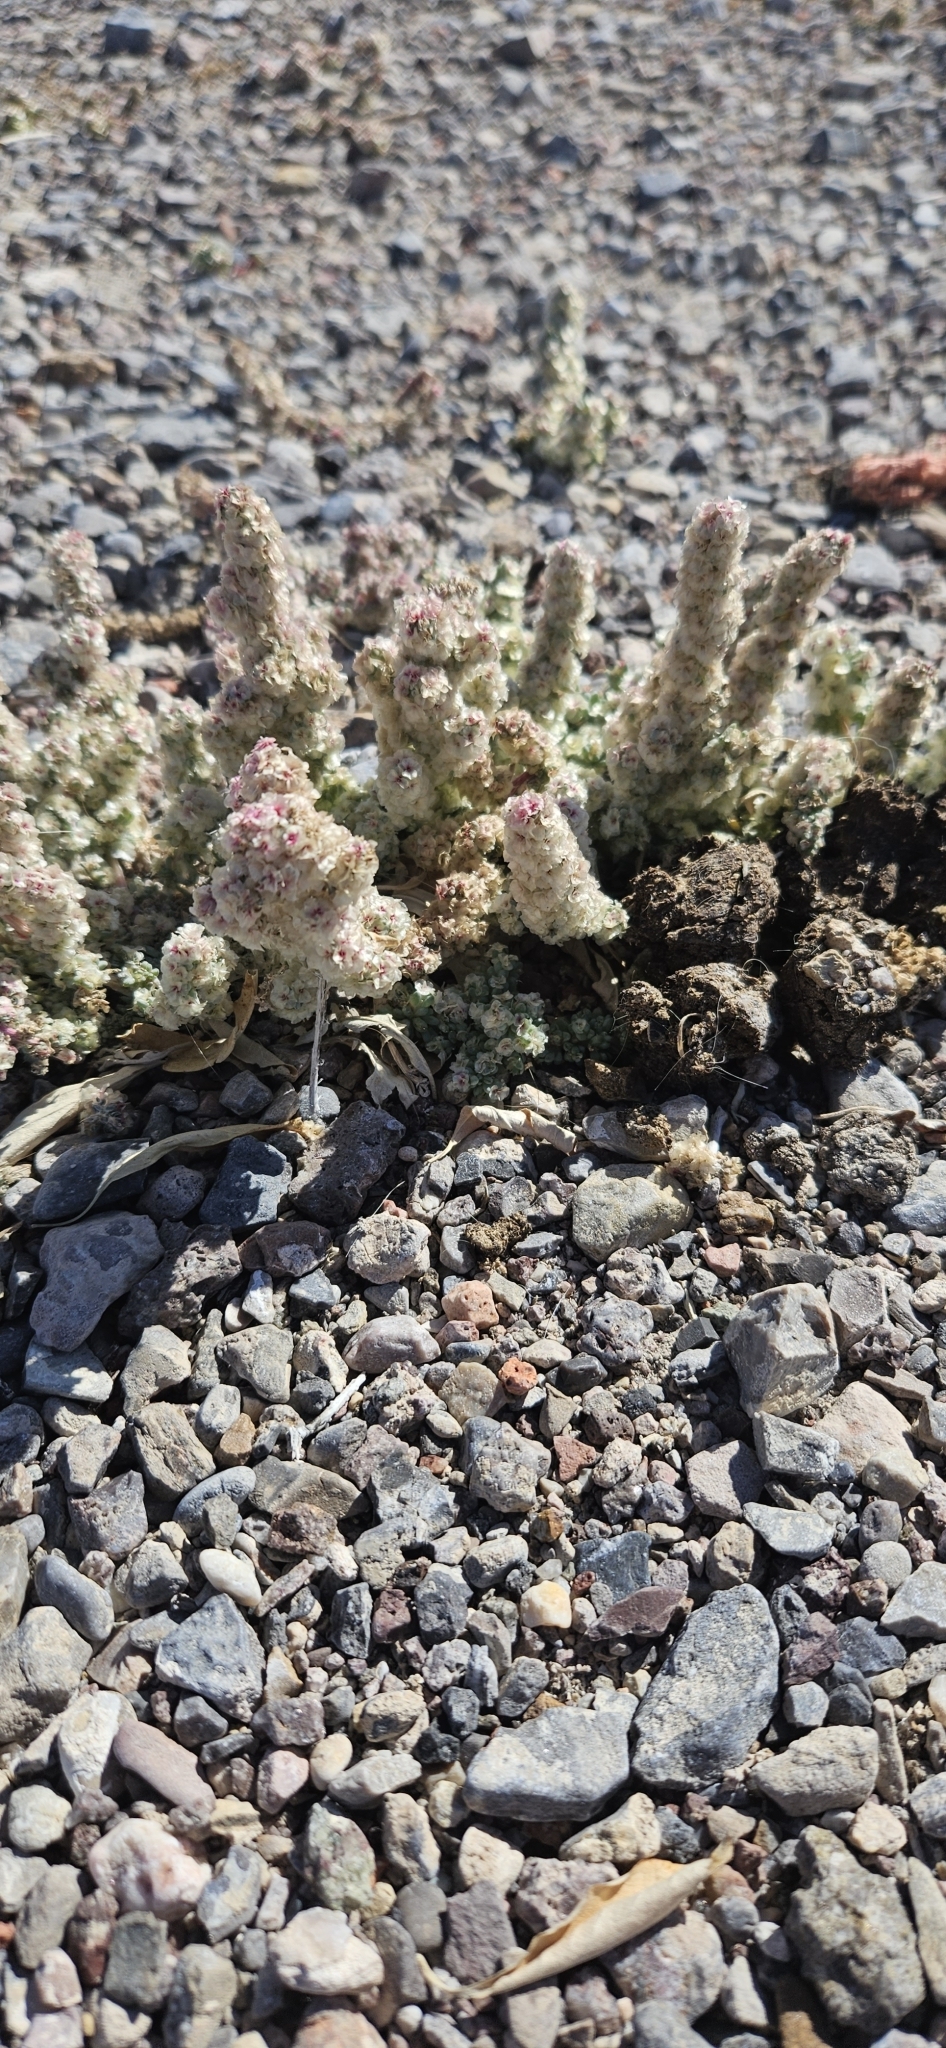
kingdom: Plantae
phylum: Tracheophyta
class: Magnoliopsida
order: Caryophyllales
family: Amaranthaceae
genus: Halogeton
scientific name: Halogeton glomeratus
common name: Saltlover
